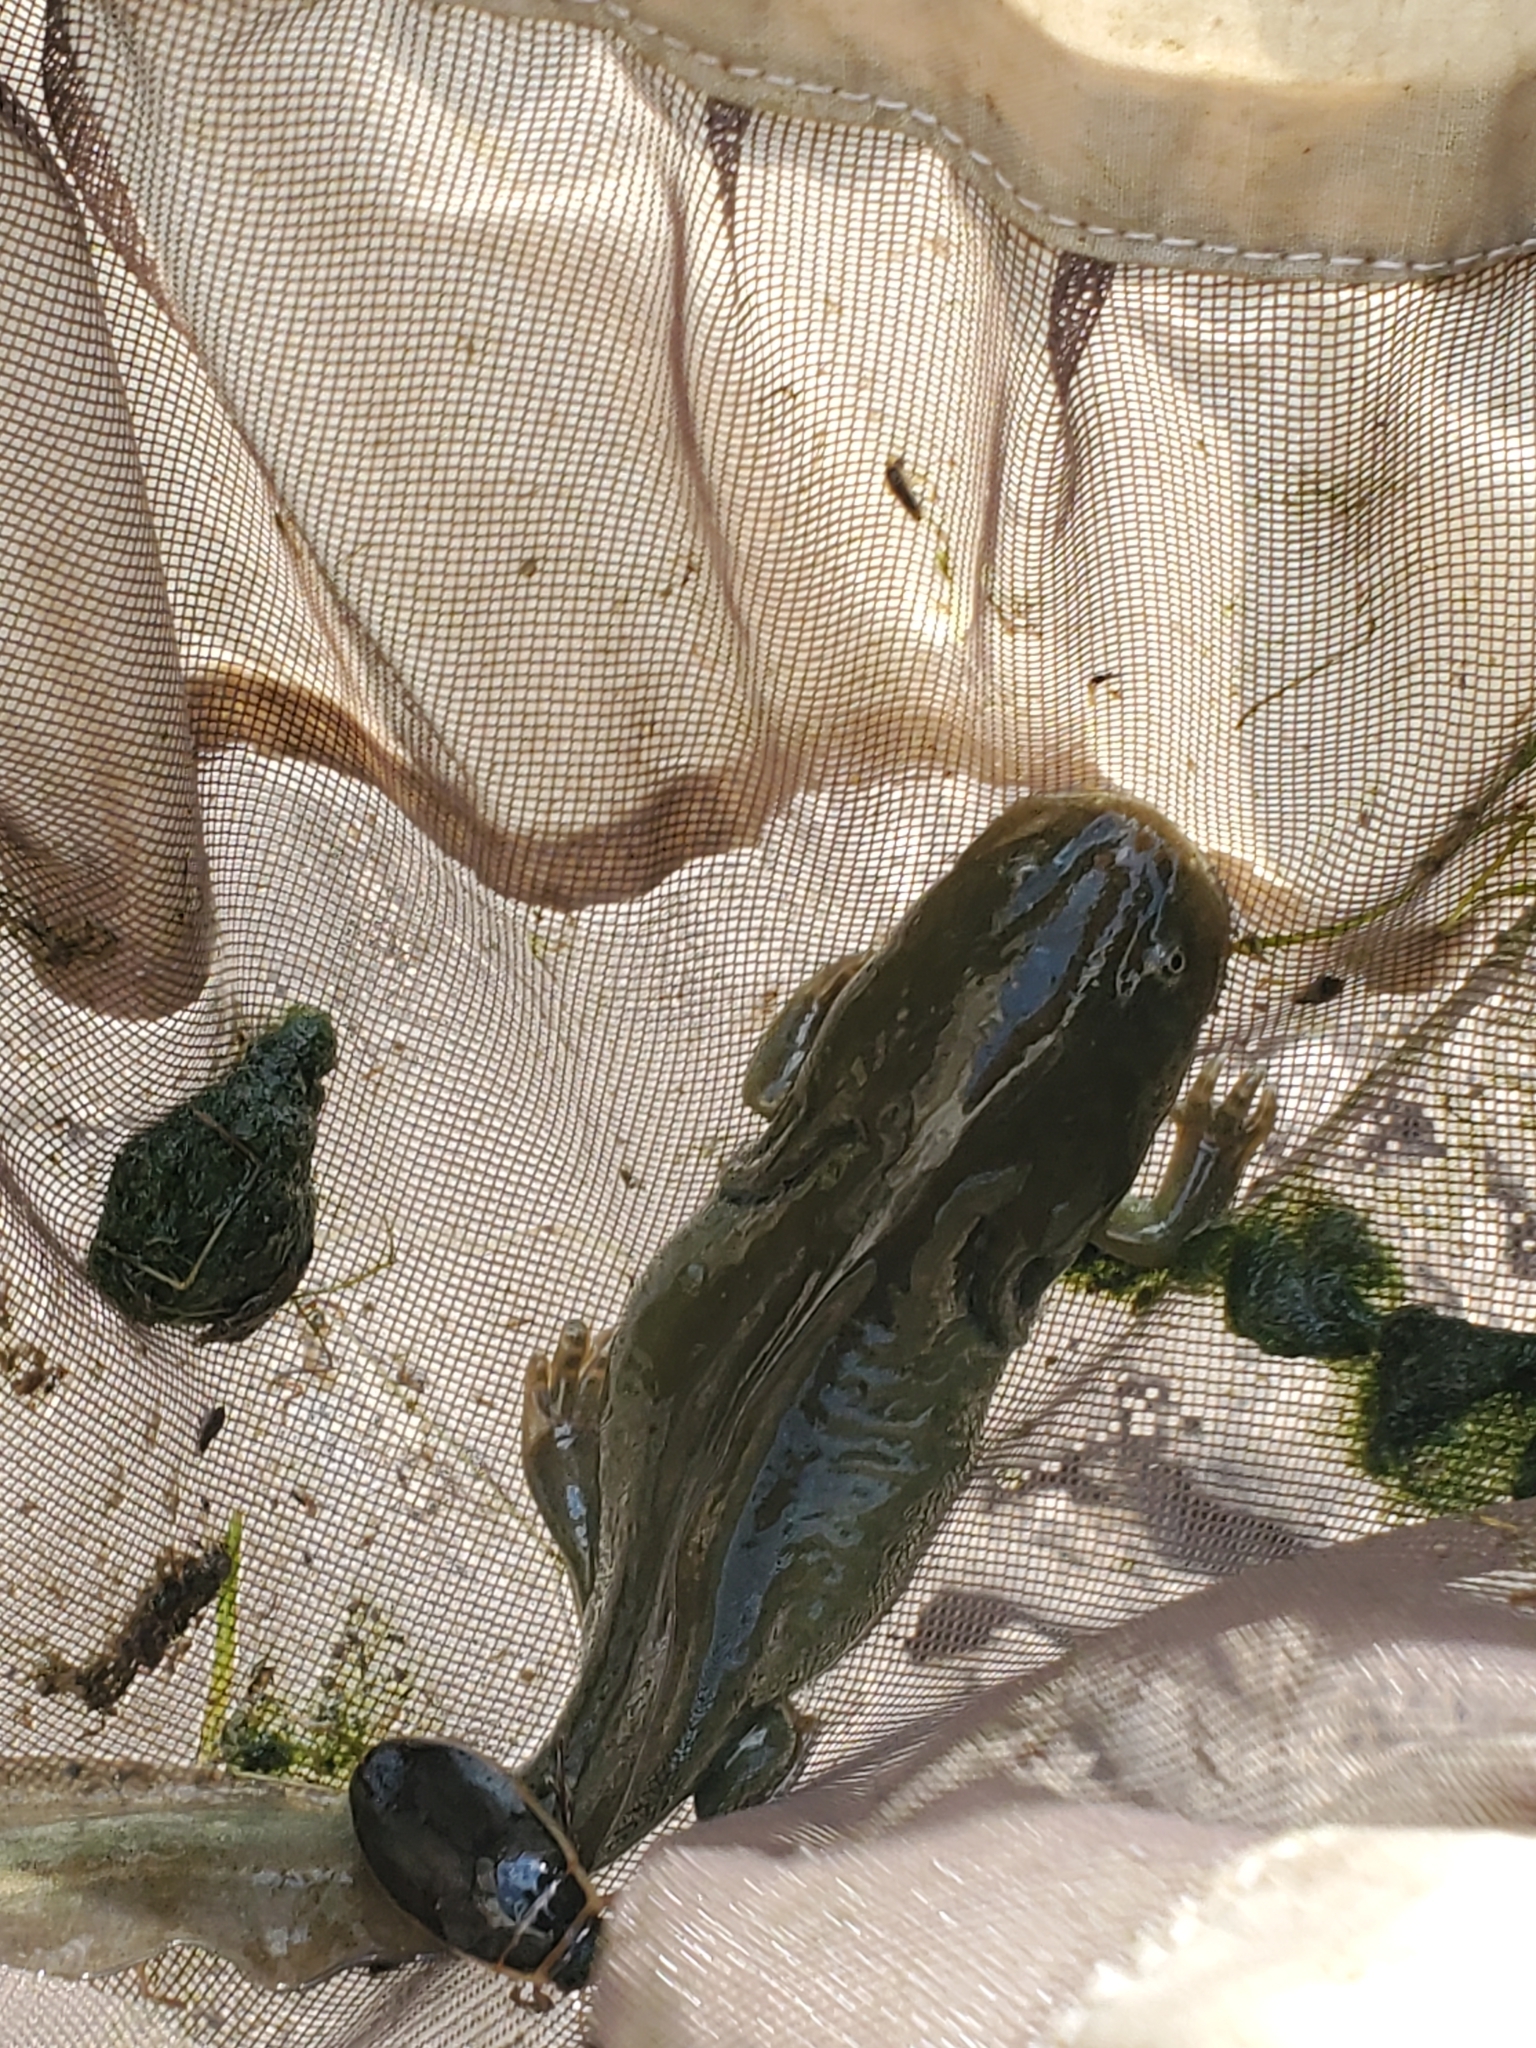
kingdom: Animalia
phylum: Chordata
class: Amphibia
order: Caudata
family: Ambystomatidae
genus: Ambystoma
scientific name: Ambystoma mavortium
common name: Western tiger salamander
